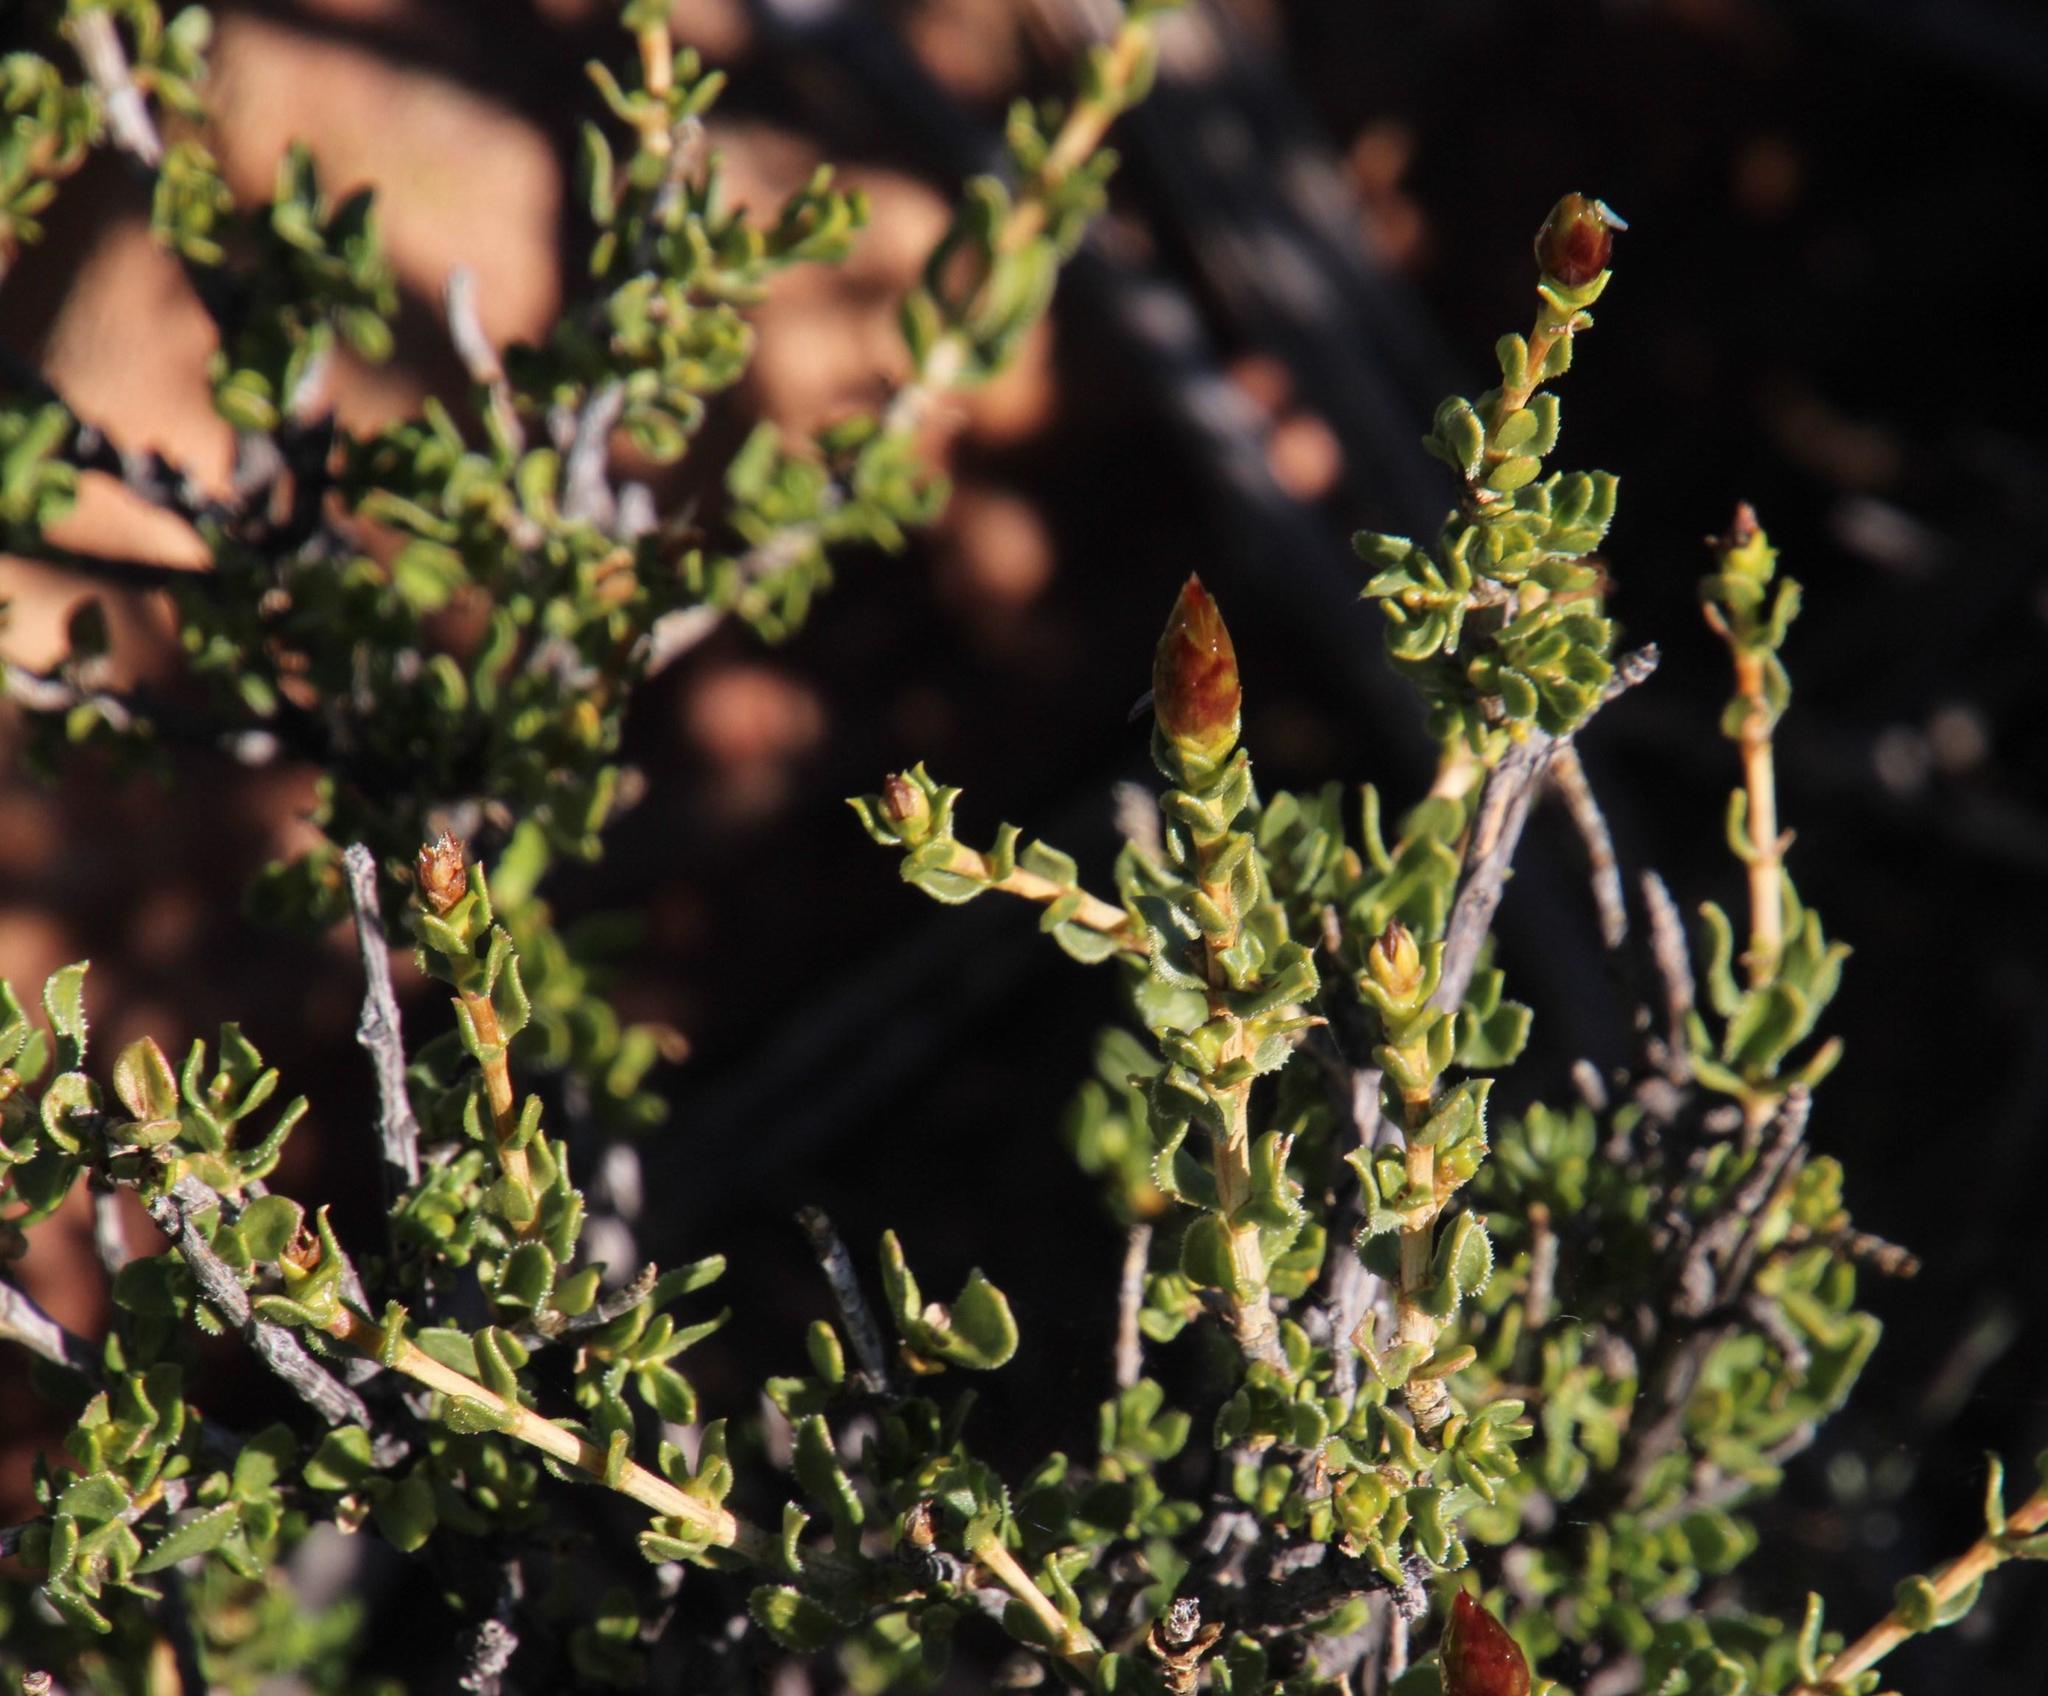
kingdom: Plantae
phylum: Tracheophyta
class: Magnoliopsida
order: Asterales
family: Asteraceae
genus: Pteronia
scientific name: Pteronia adenocarpa
